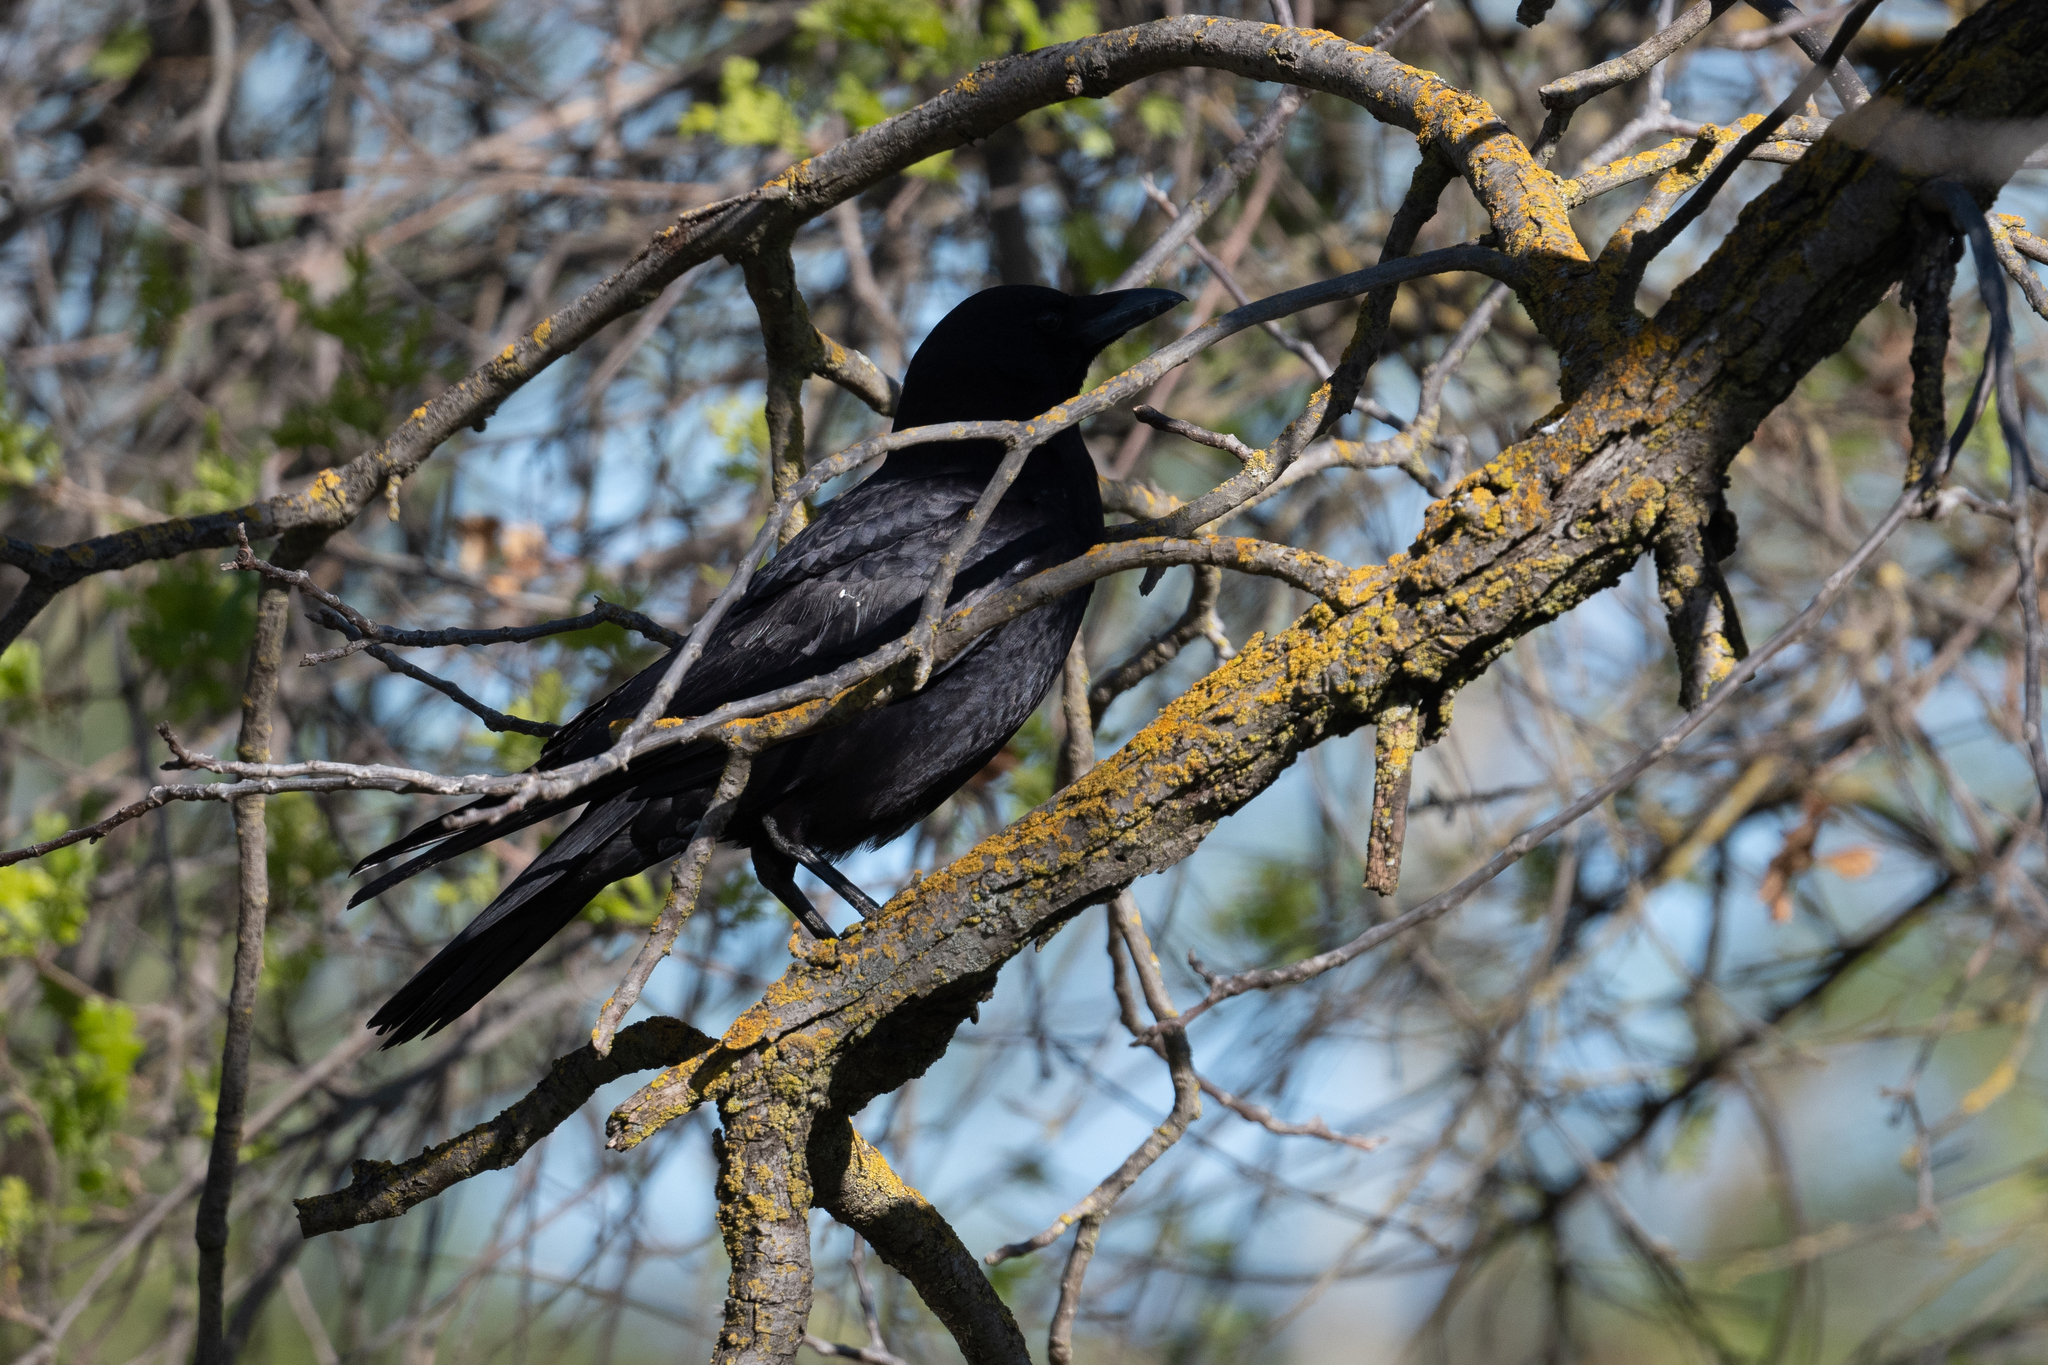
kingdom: Animalia
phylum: Chordata
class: Aves
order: Passeriformes
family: Corvidae
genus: Corvus
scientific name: Corvus brachyrhynchos
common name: American crow
